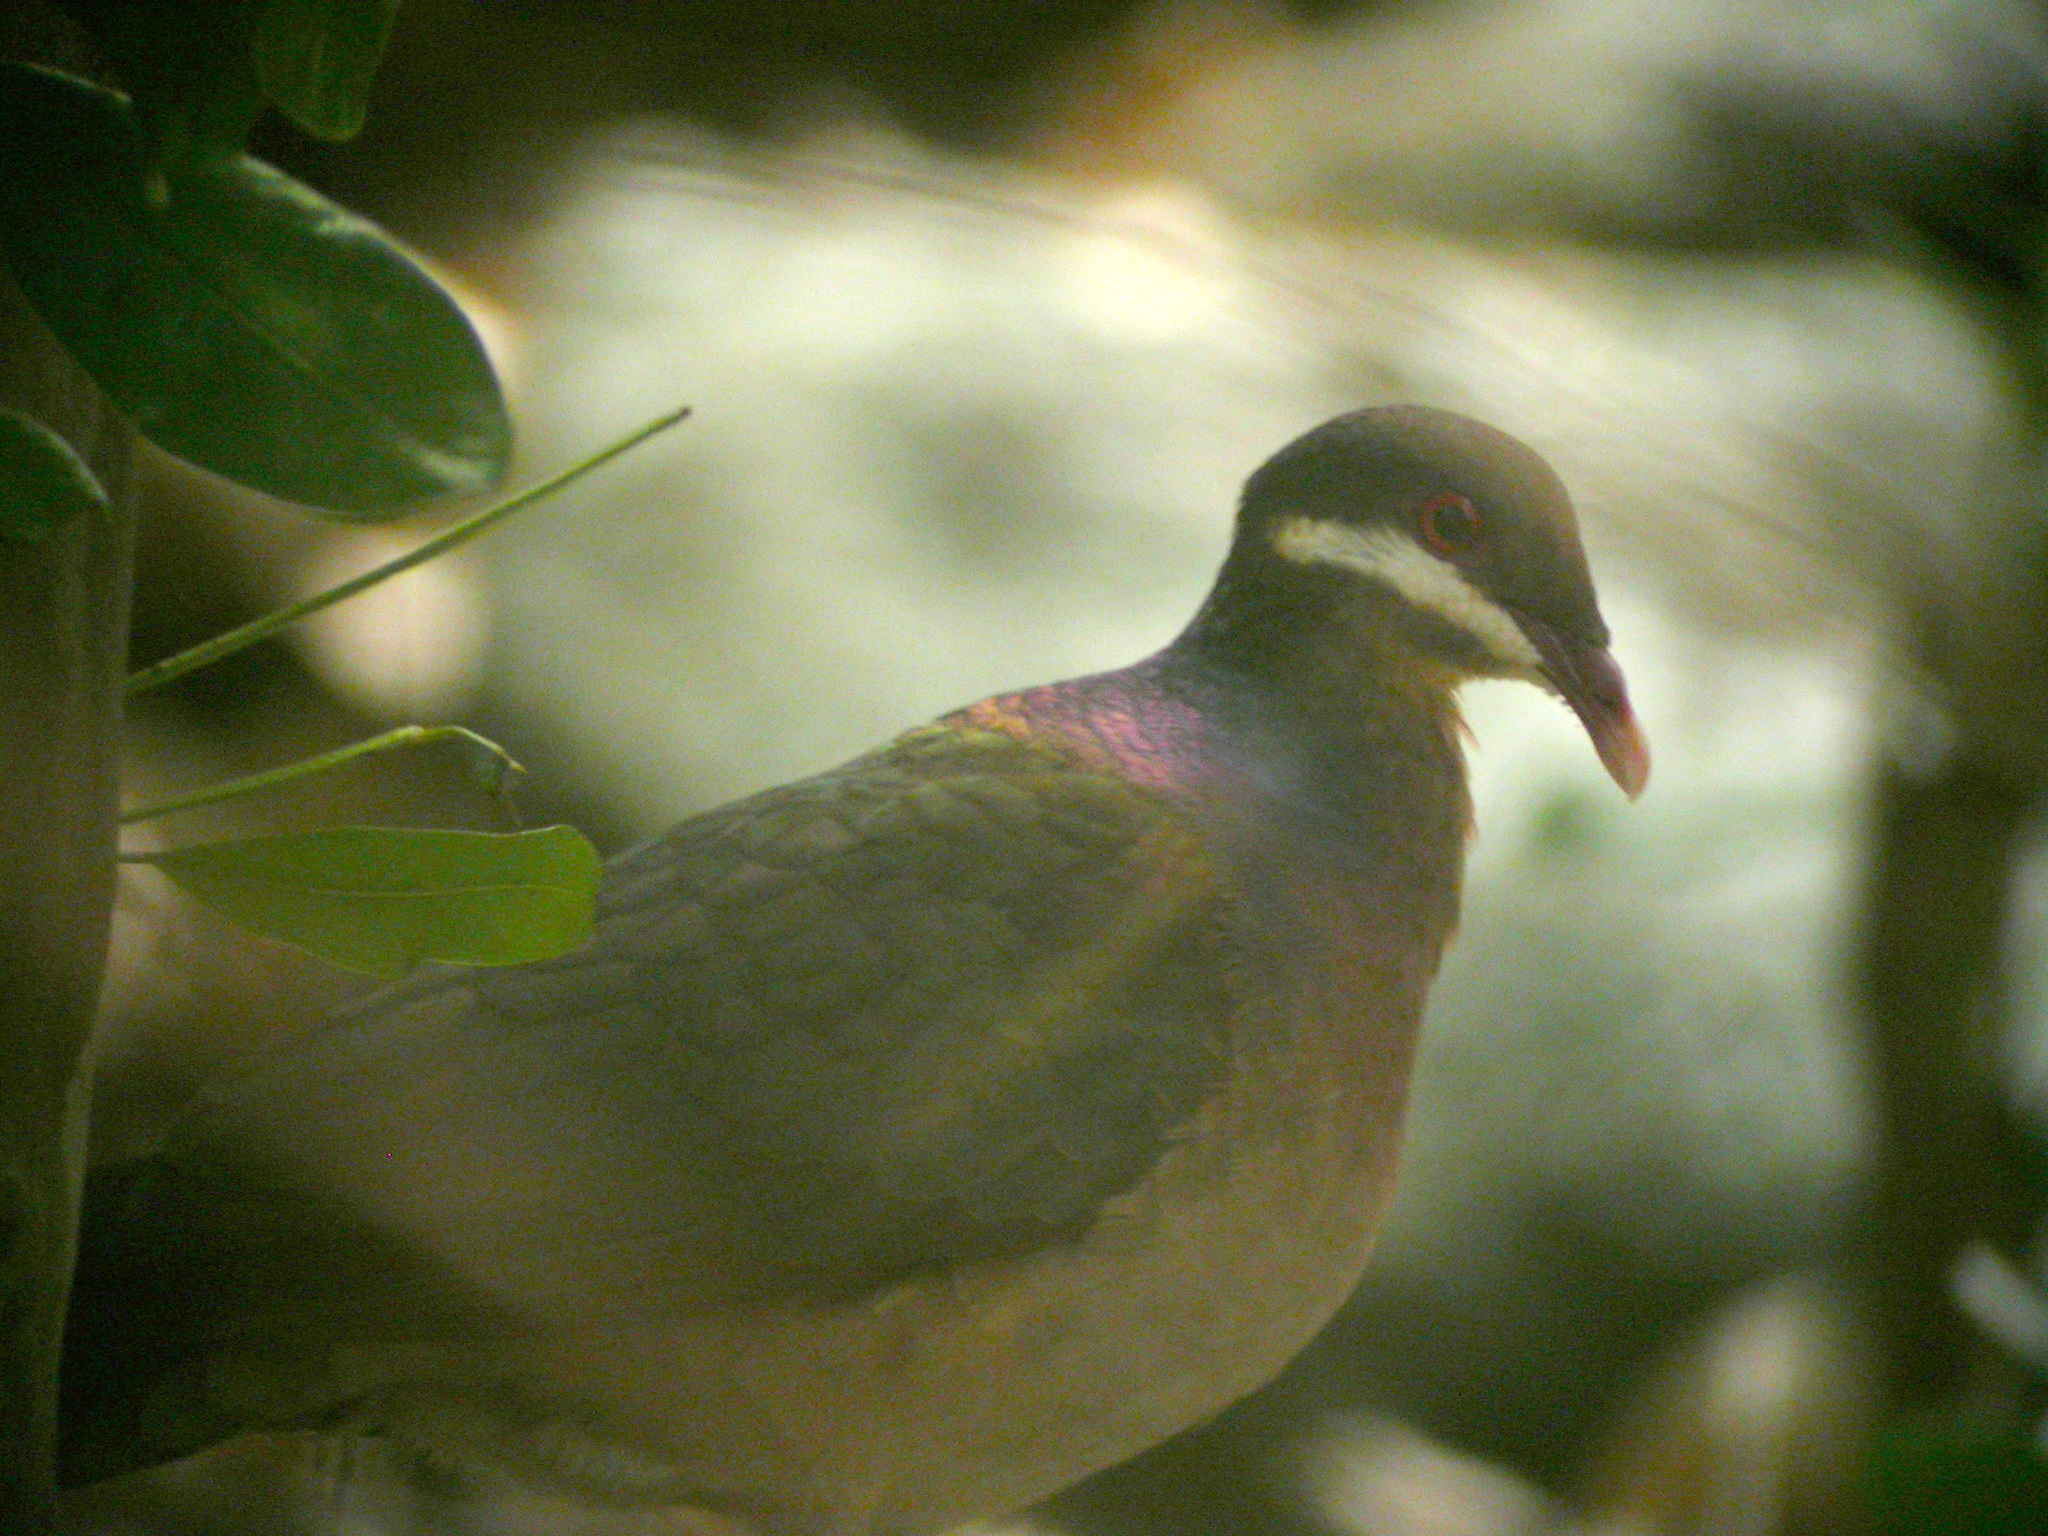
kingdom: Animalia
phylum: Chordata
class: Aves
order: Columbiformes
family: Columbidae
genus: Geotrygon
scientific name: Geotrygon mystacea
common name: Bridled quail-dove
